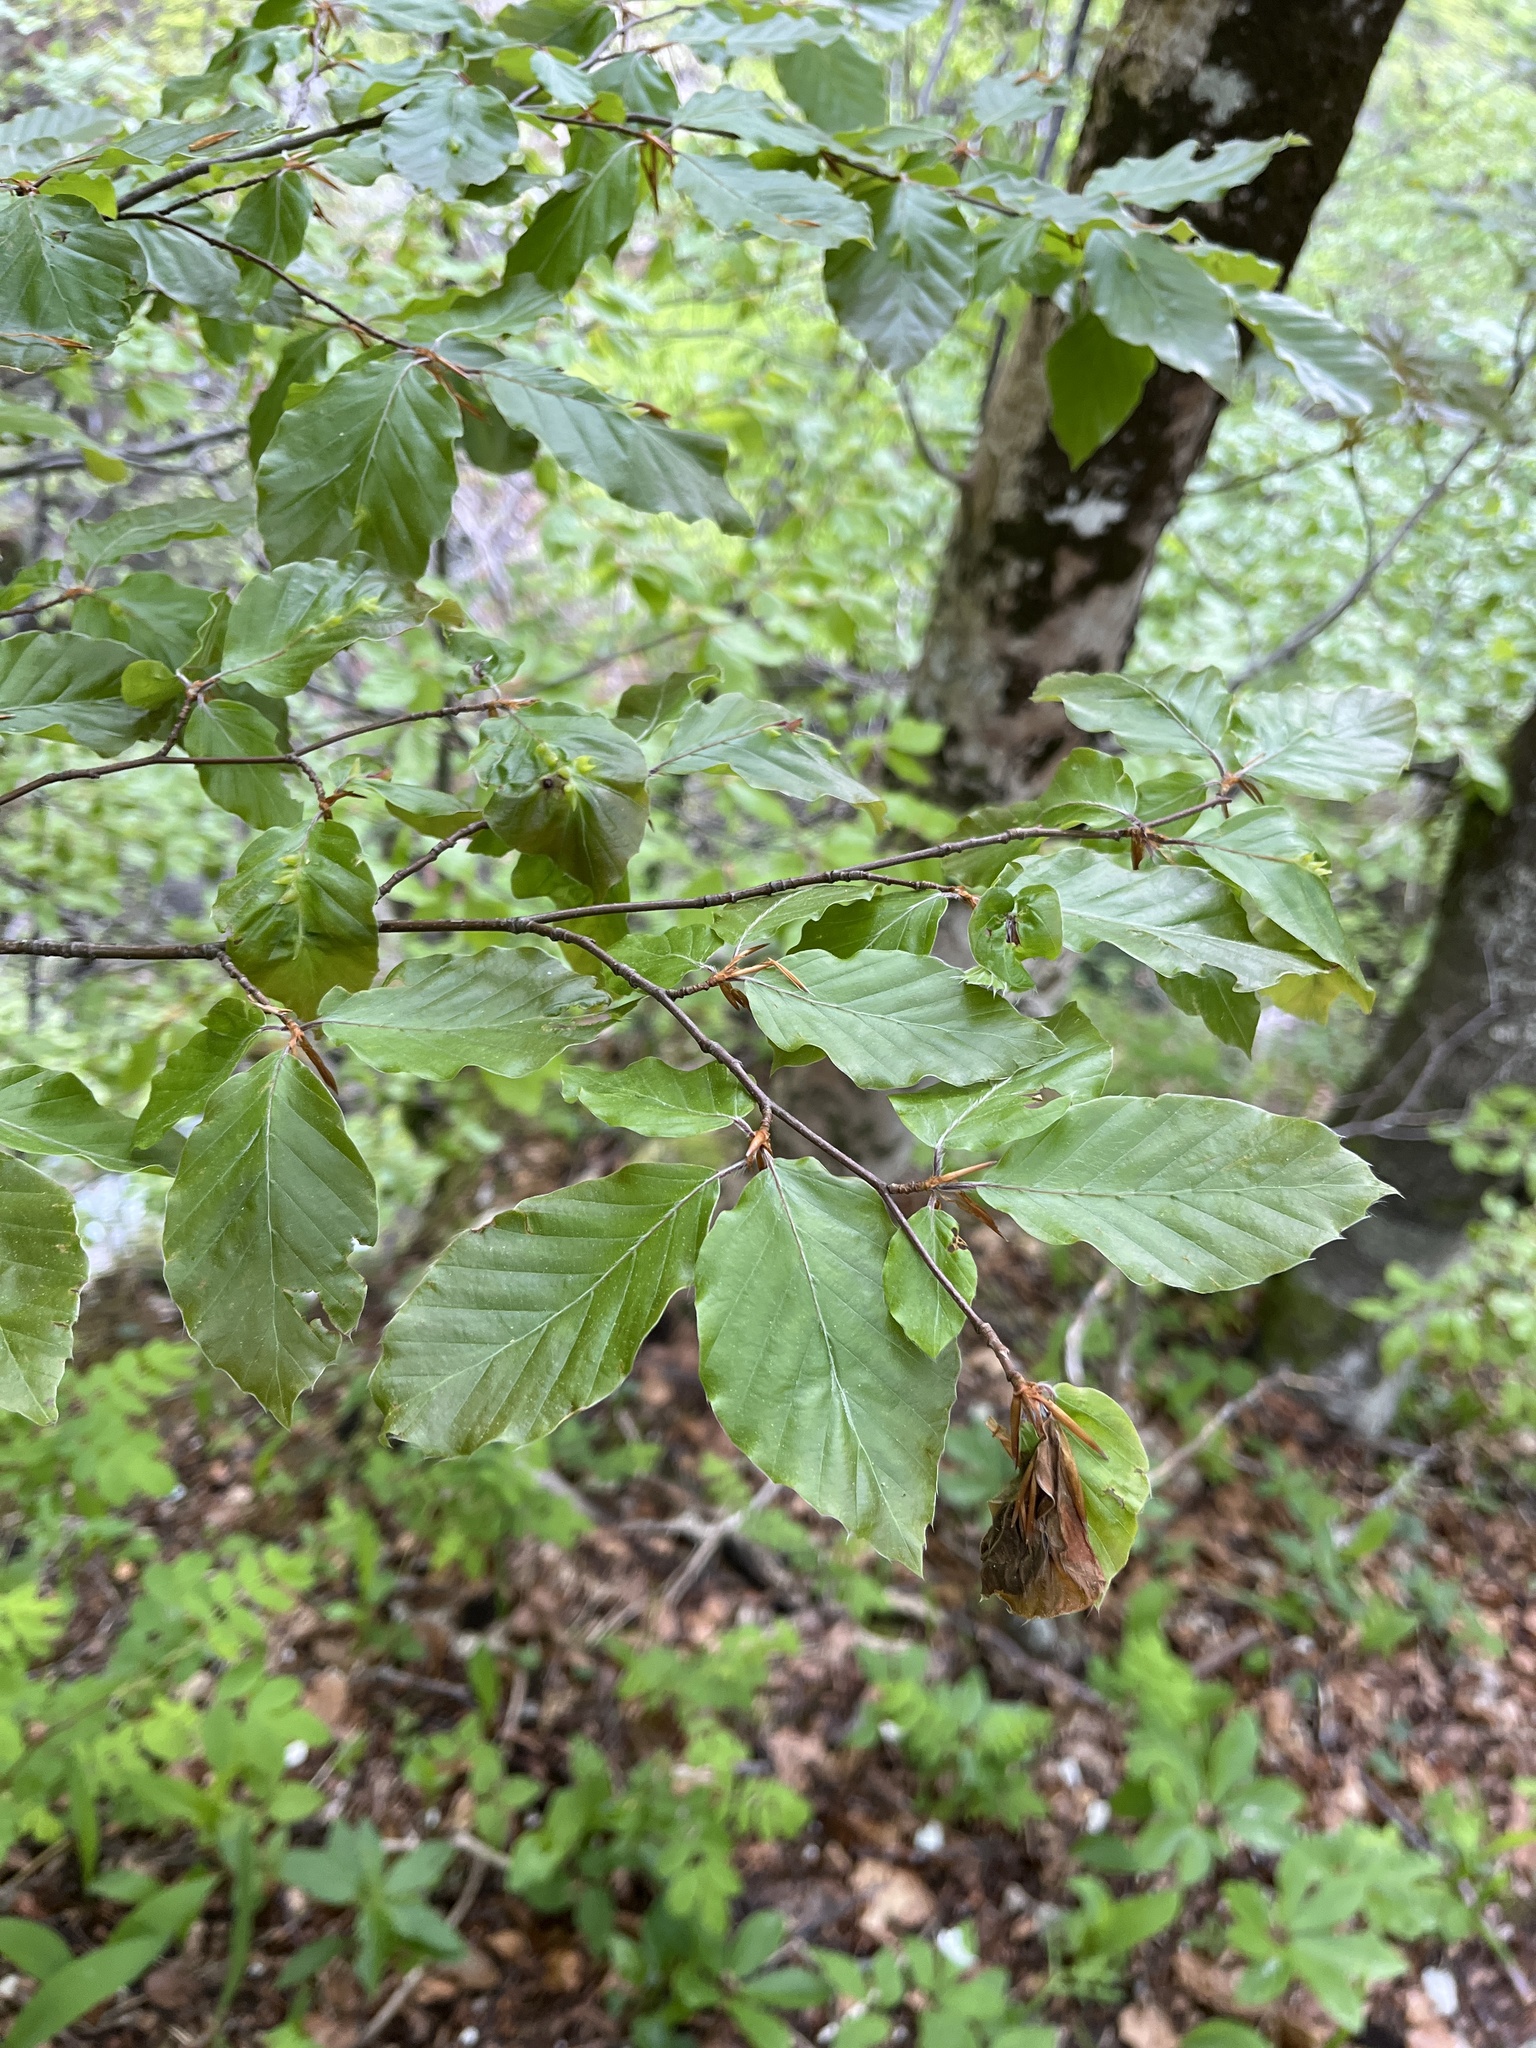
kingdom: Plantae
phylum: Tracheophyta
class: Magnoliopsida
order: Fagales
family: Fagaceae
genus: Fagus
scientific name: Fagus sylvatica
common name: Beech
